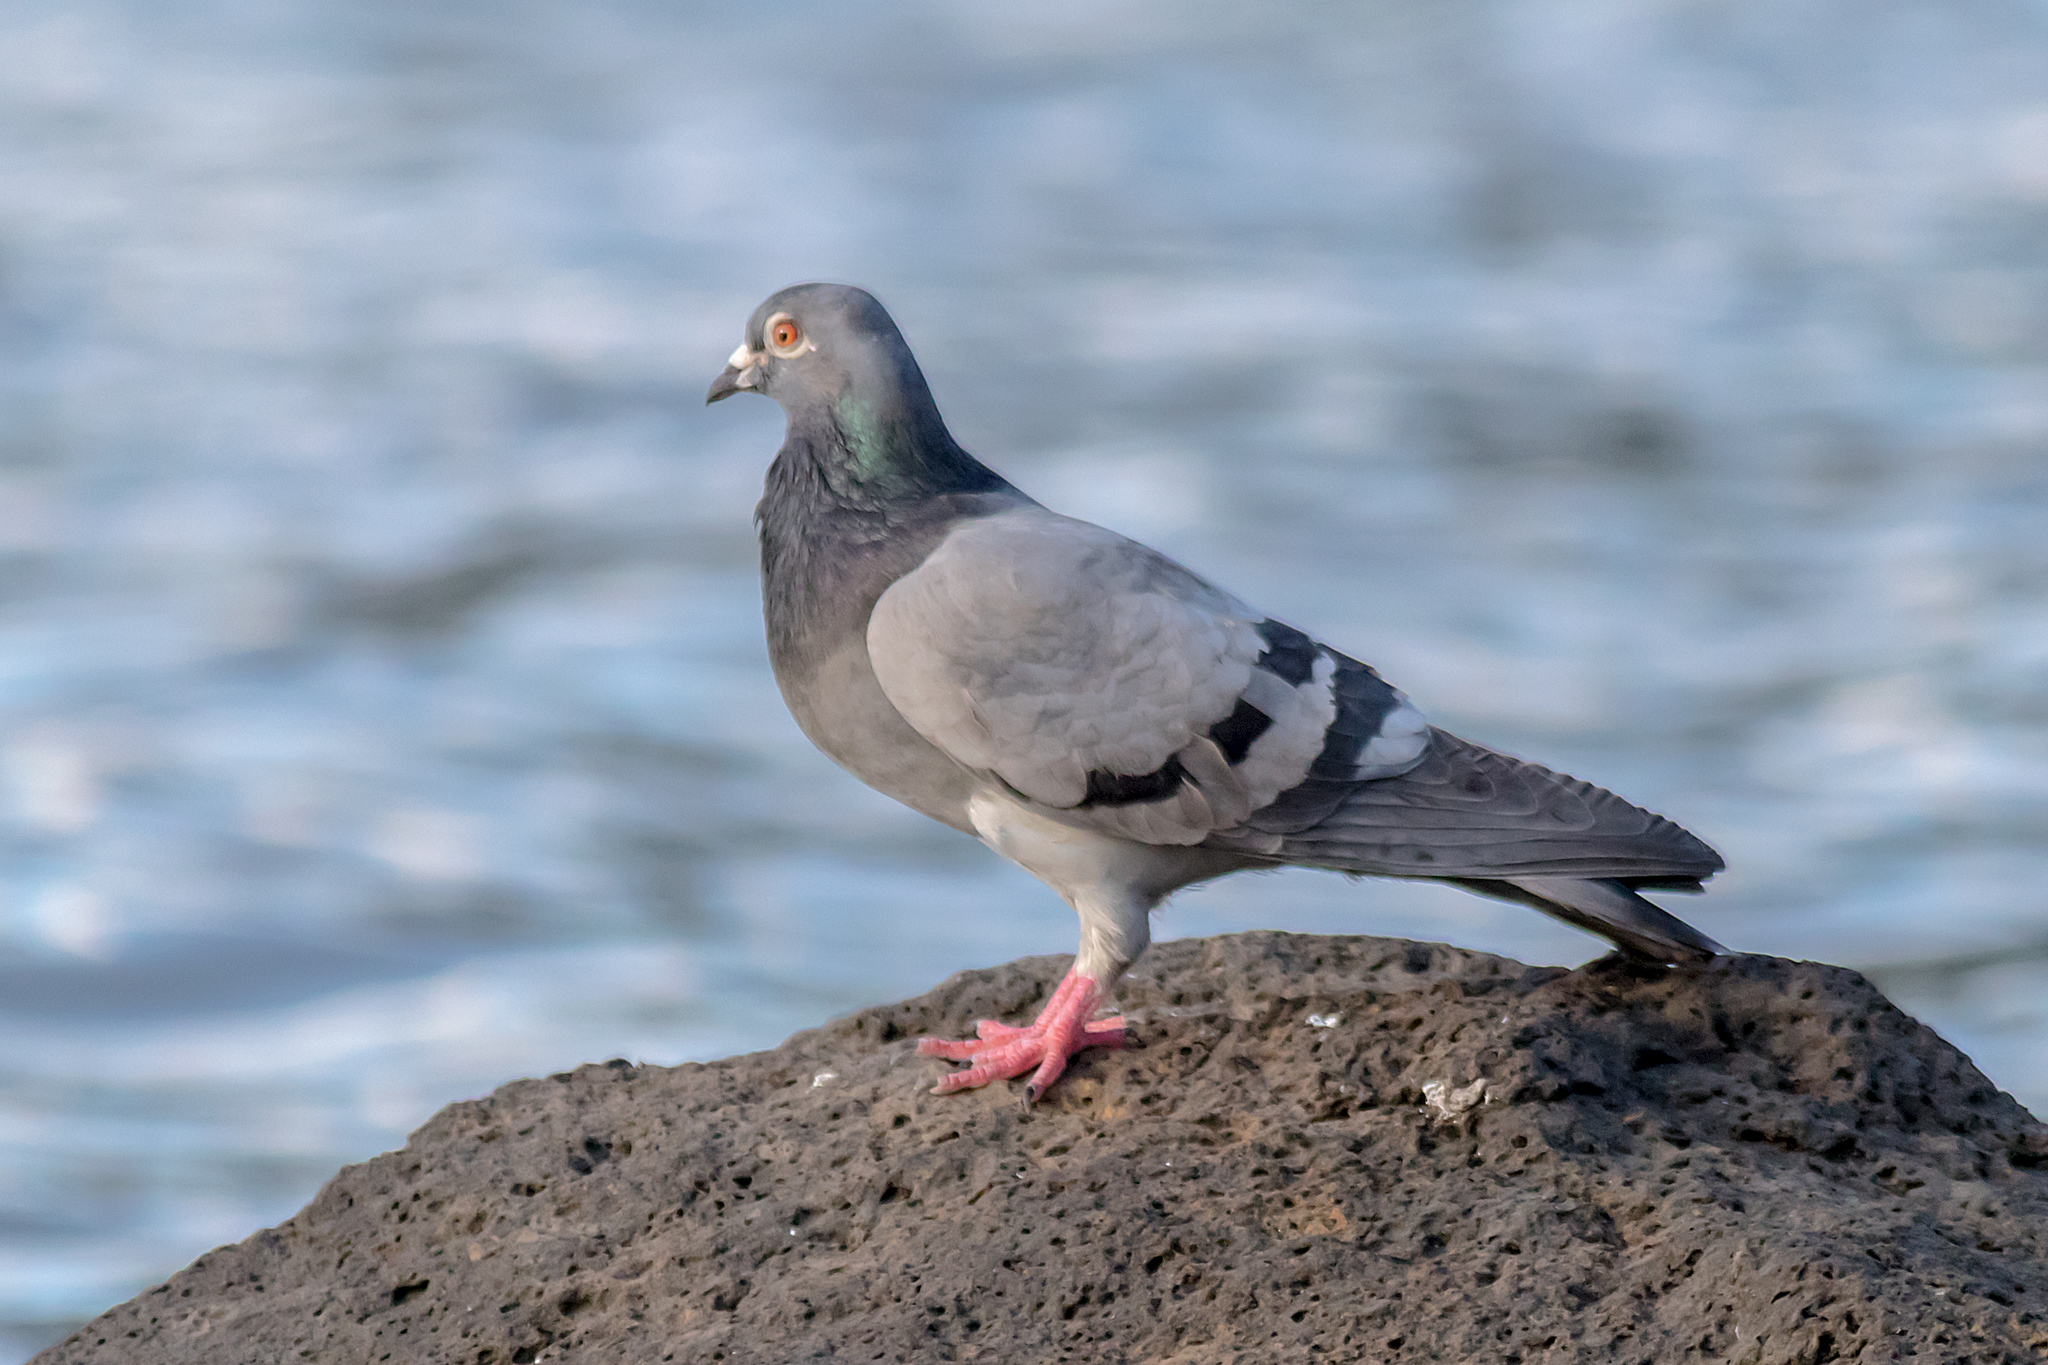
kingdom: Animalia
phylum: Chordata
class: Aves
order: Columbiformes
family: Columbidae
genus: Columba
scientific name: Columba livia
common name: Rock pigeon
